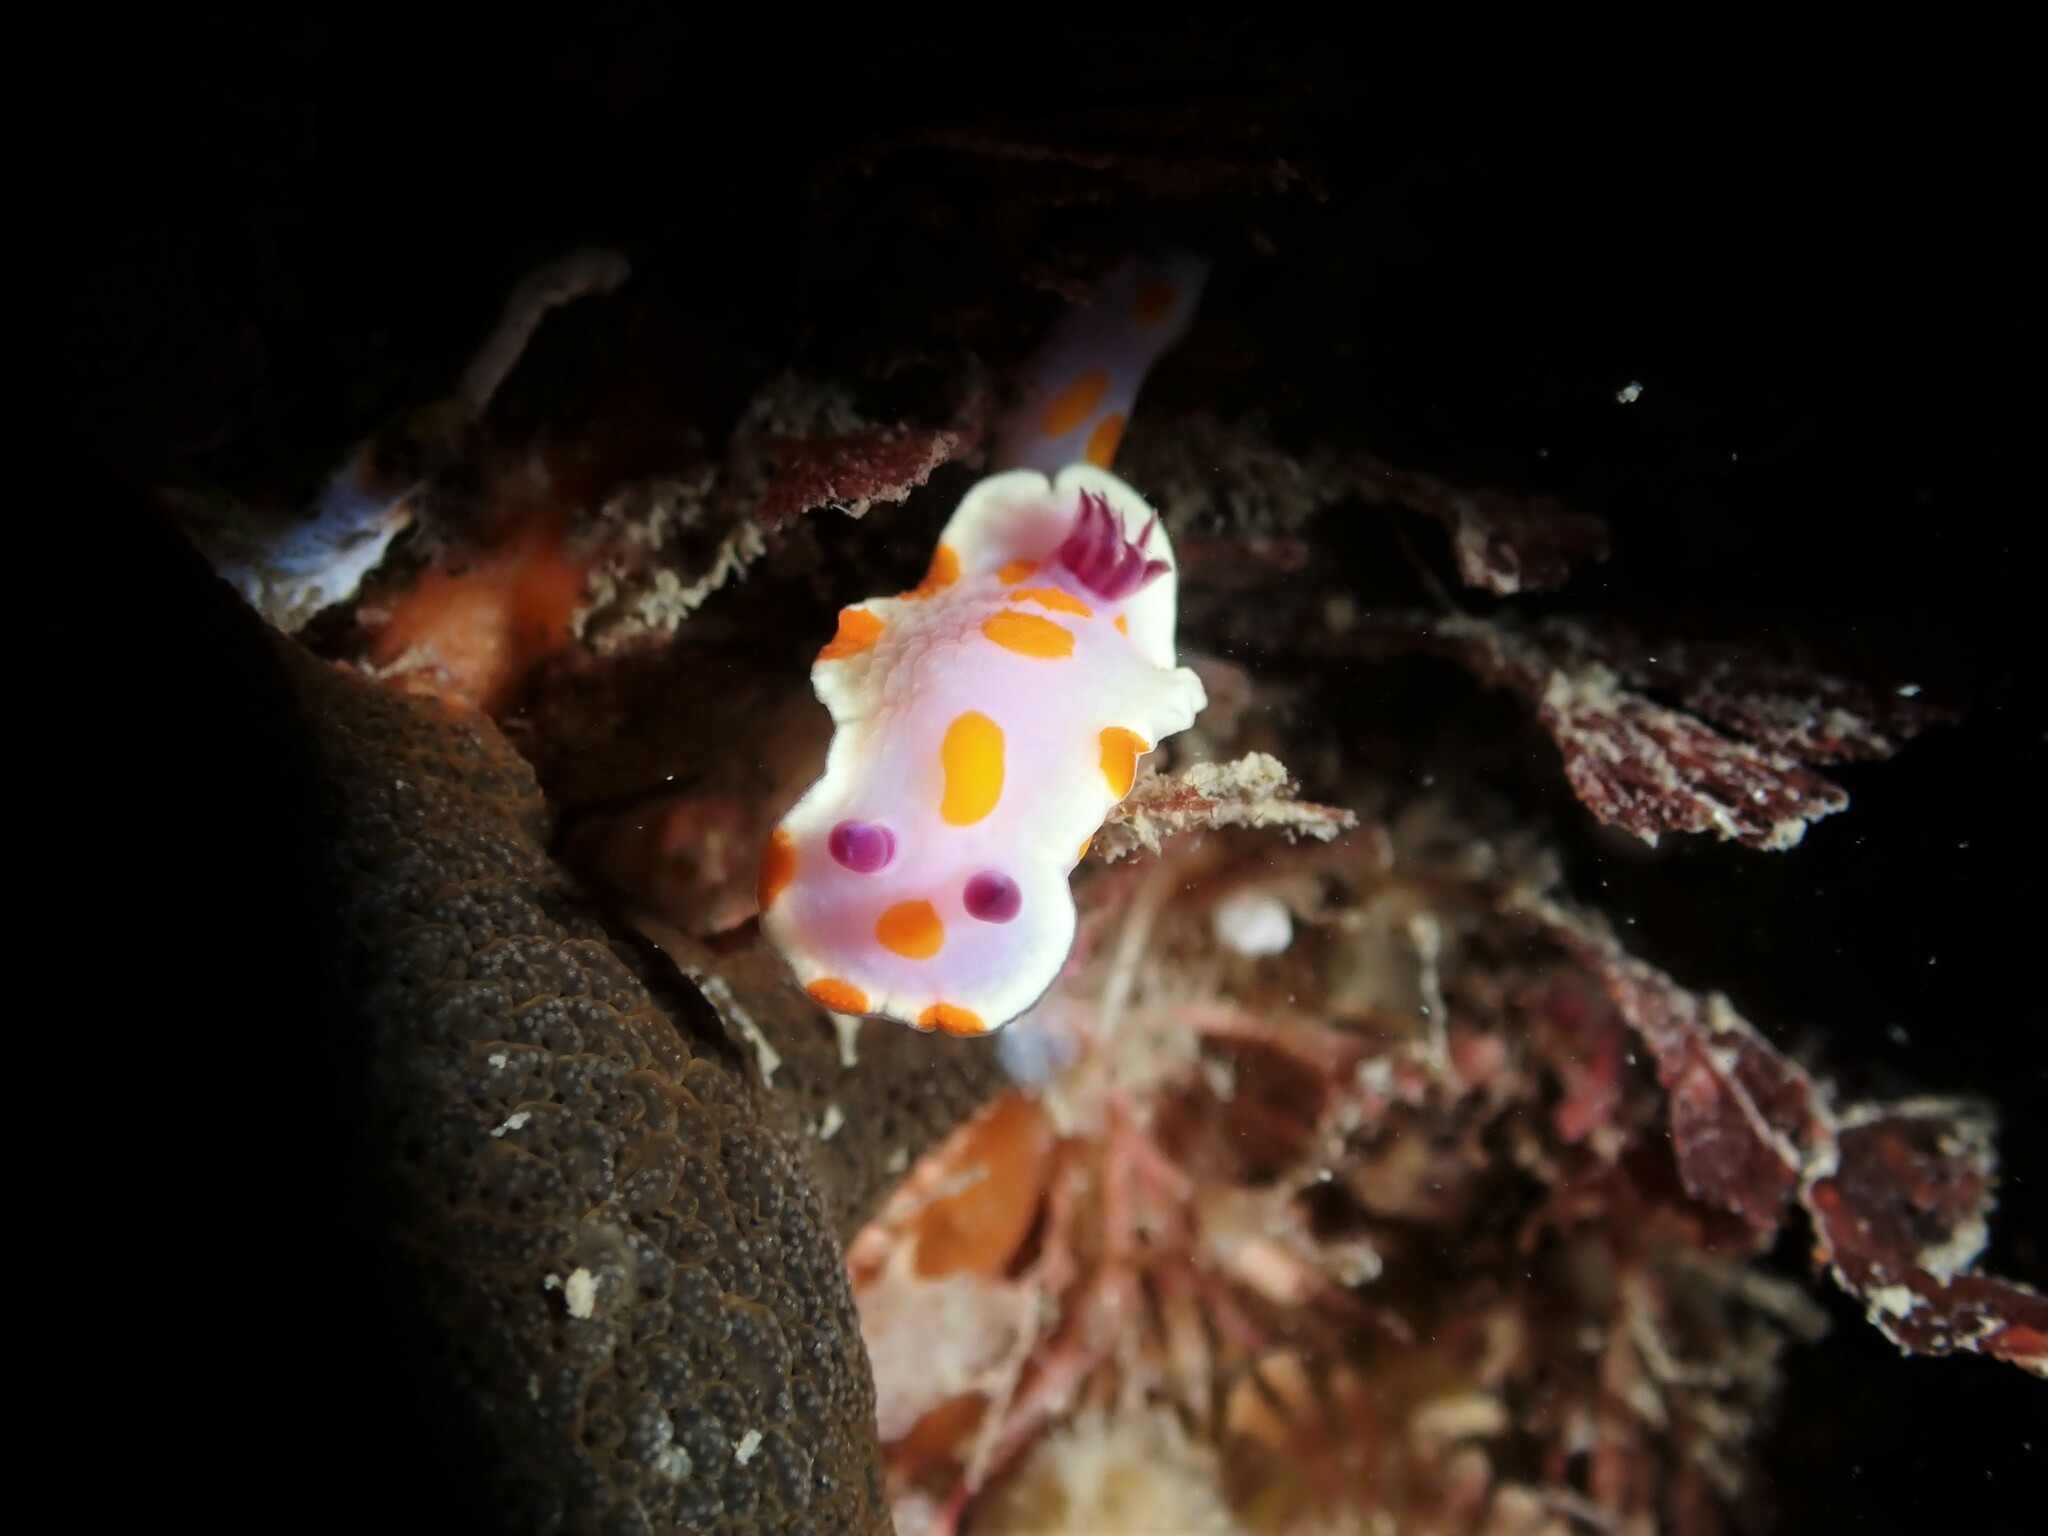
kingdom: Animalia
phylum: Mollusca
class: Gastropoda
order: Nudibranchia
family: Chromodorididae
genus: Ceratosoma
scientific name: Ceratosoma amoenum
